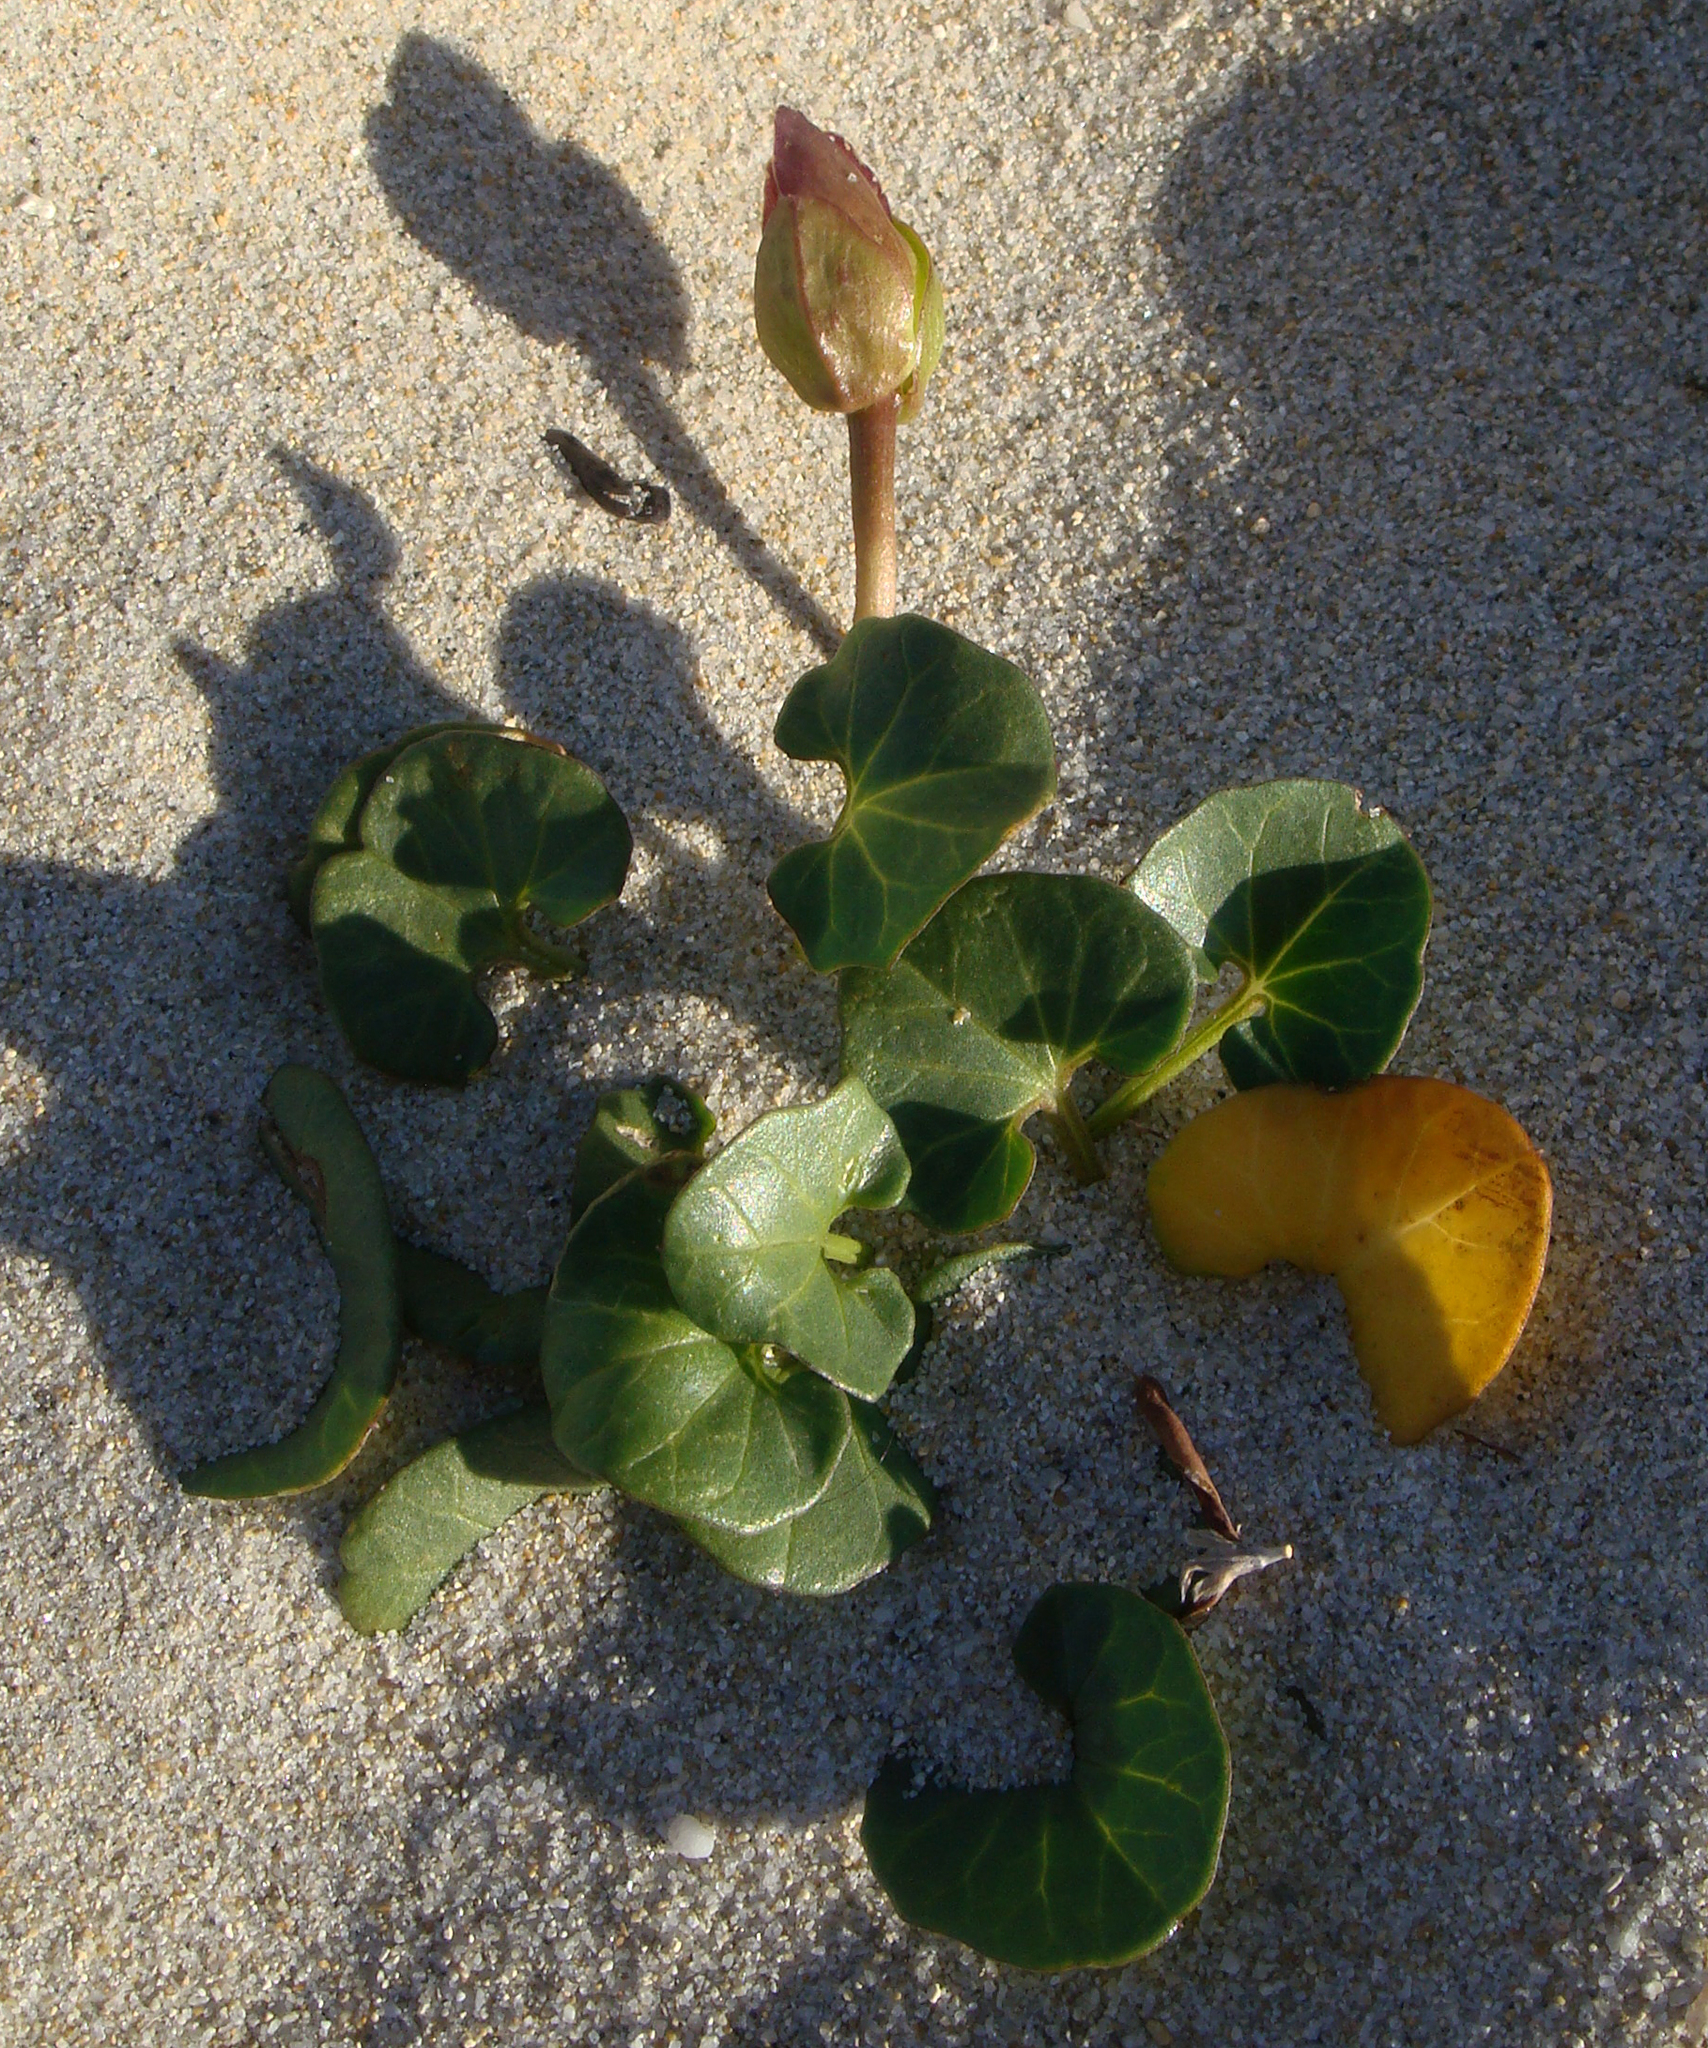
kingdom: Plantae
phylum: Tracheophyta
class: Magnoliopsida
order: Solanales
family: Convolvulaceae
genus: Calystegia
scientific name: Calystegia soldanella
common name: Sea bindweed
